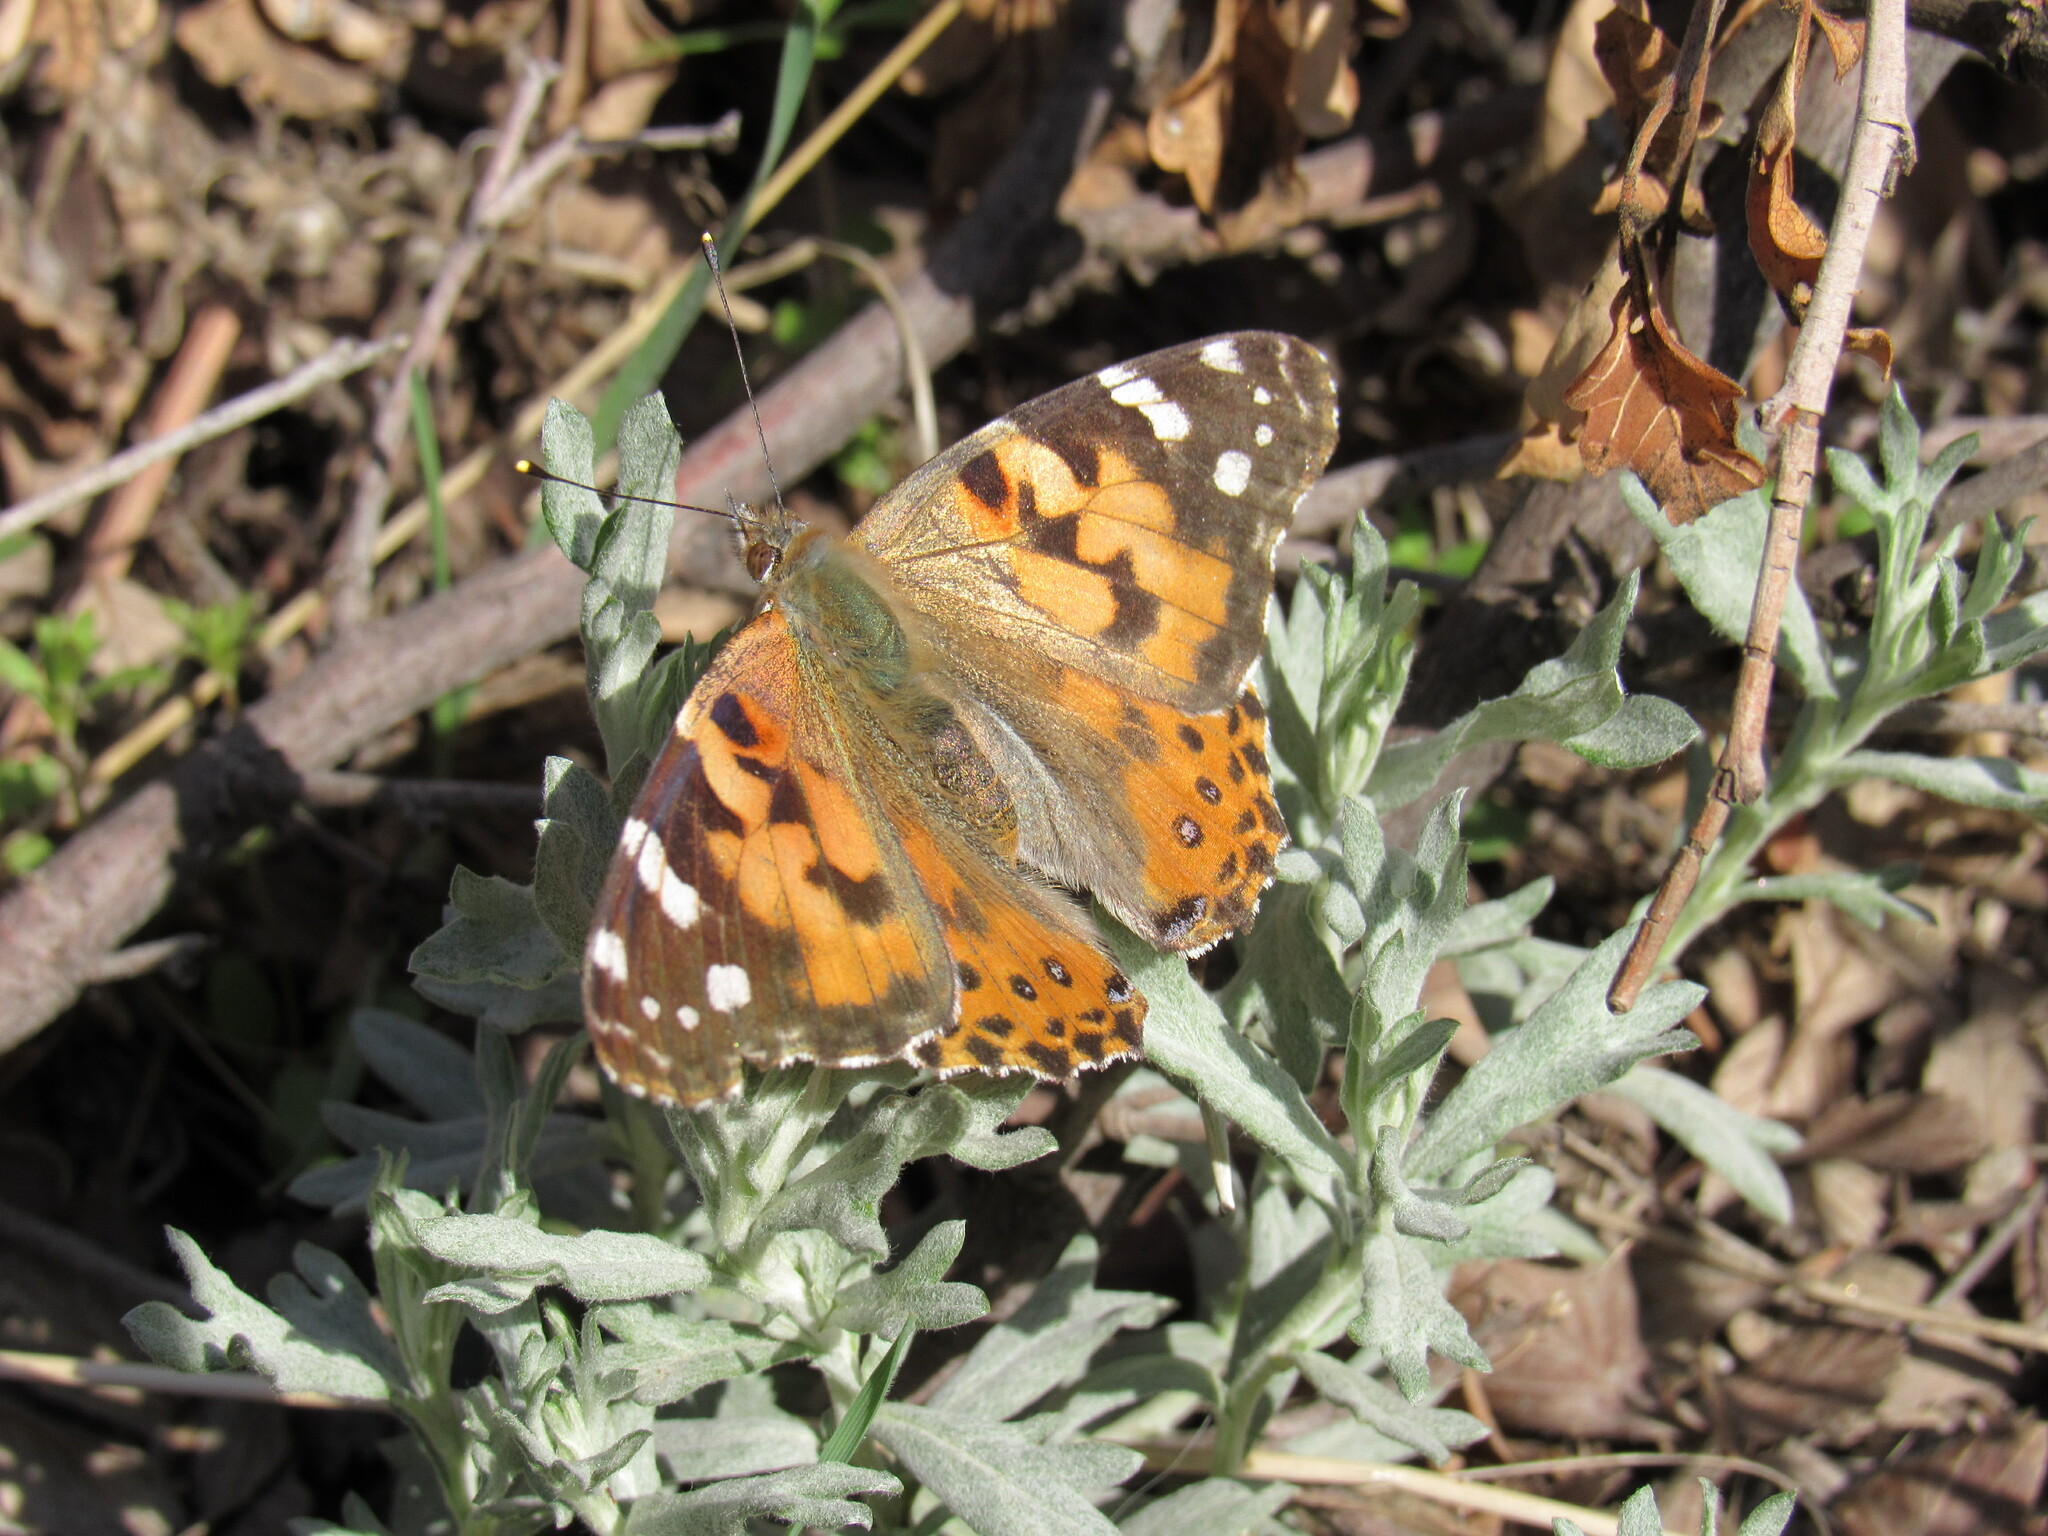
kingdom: Animalia
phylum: Arthropoda
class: Insecta
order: Lepidoptera
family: Nymphalidae
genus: Vanessa
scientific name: Vanessa cardui
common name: Painted lady
